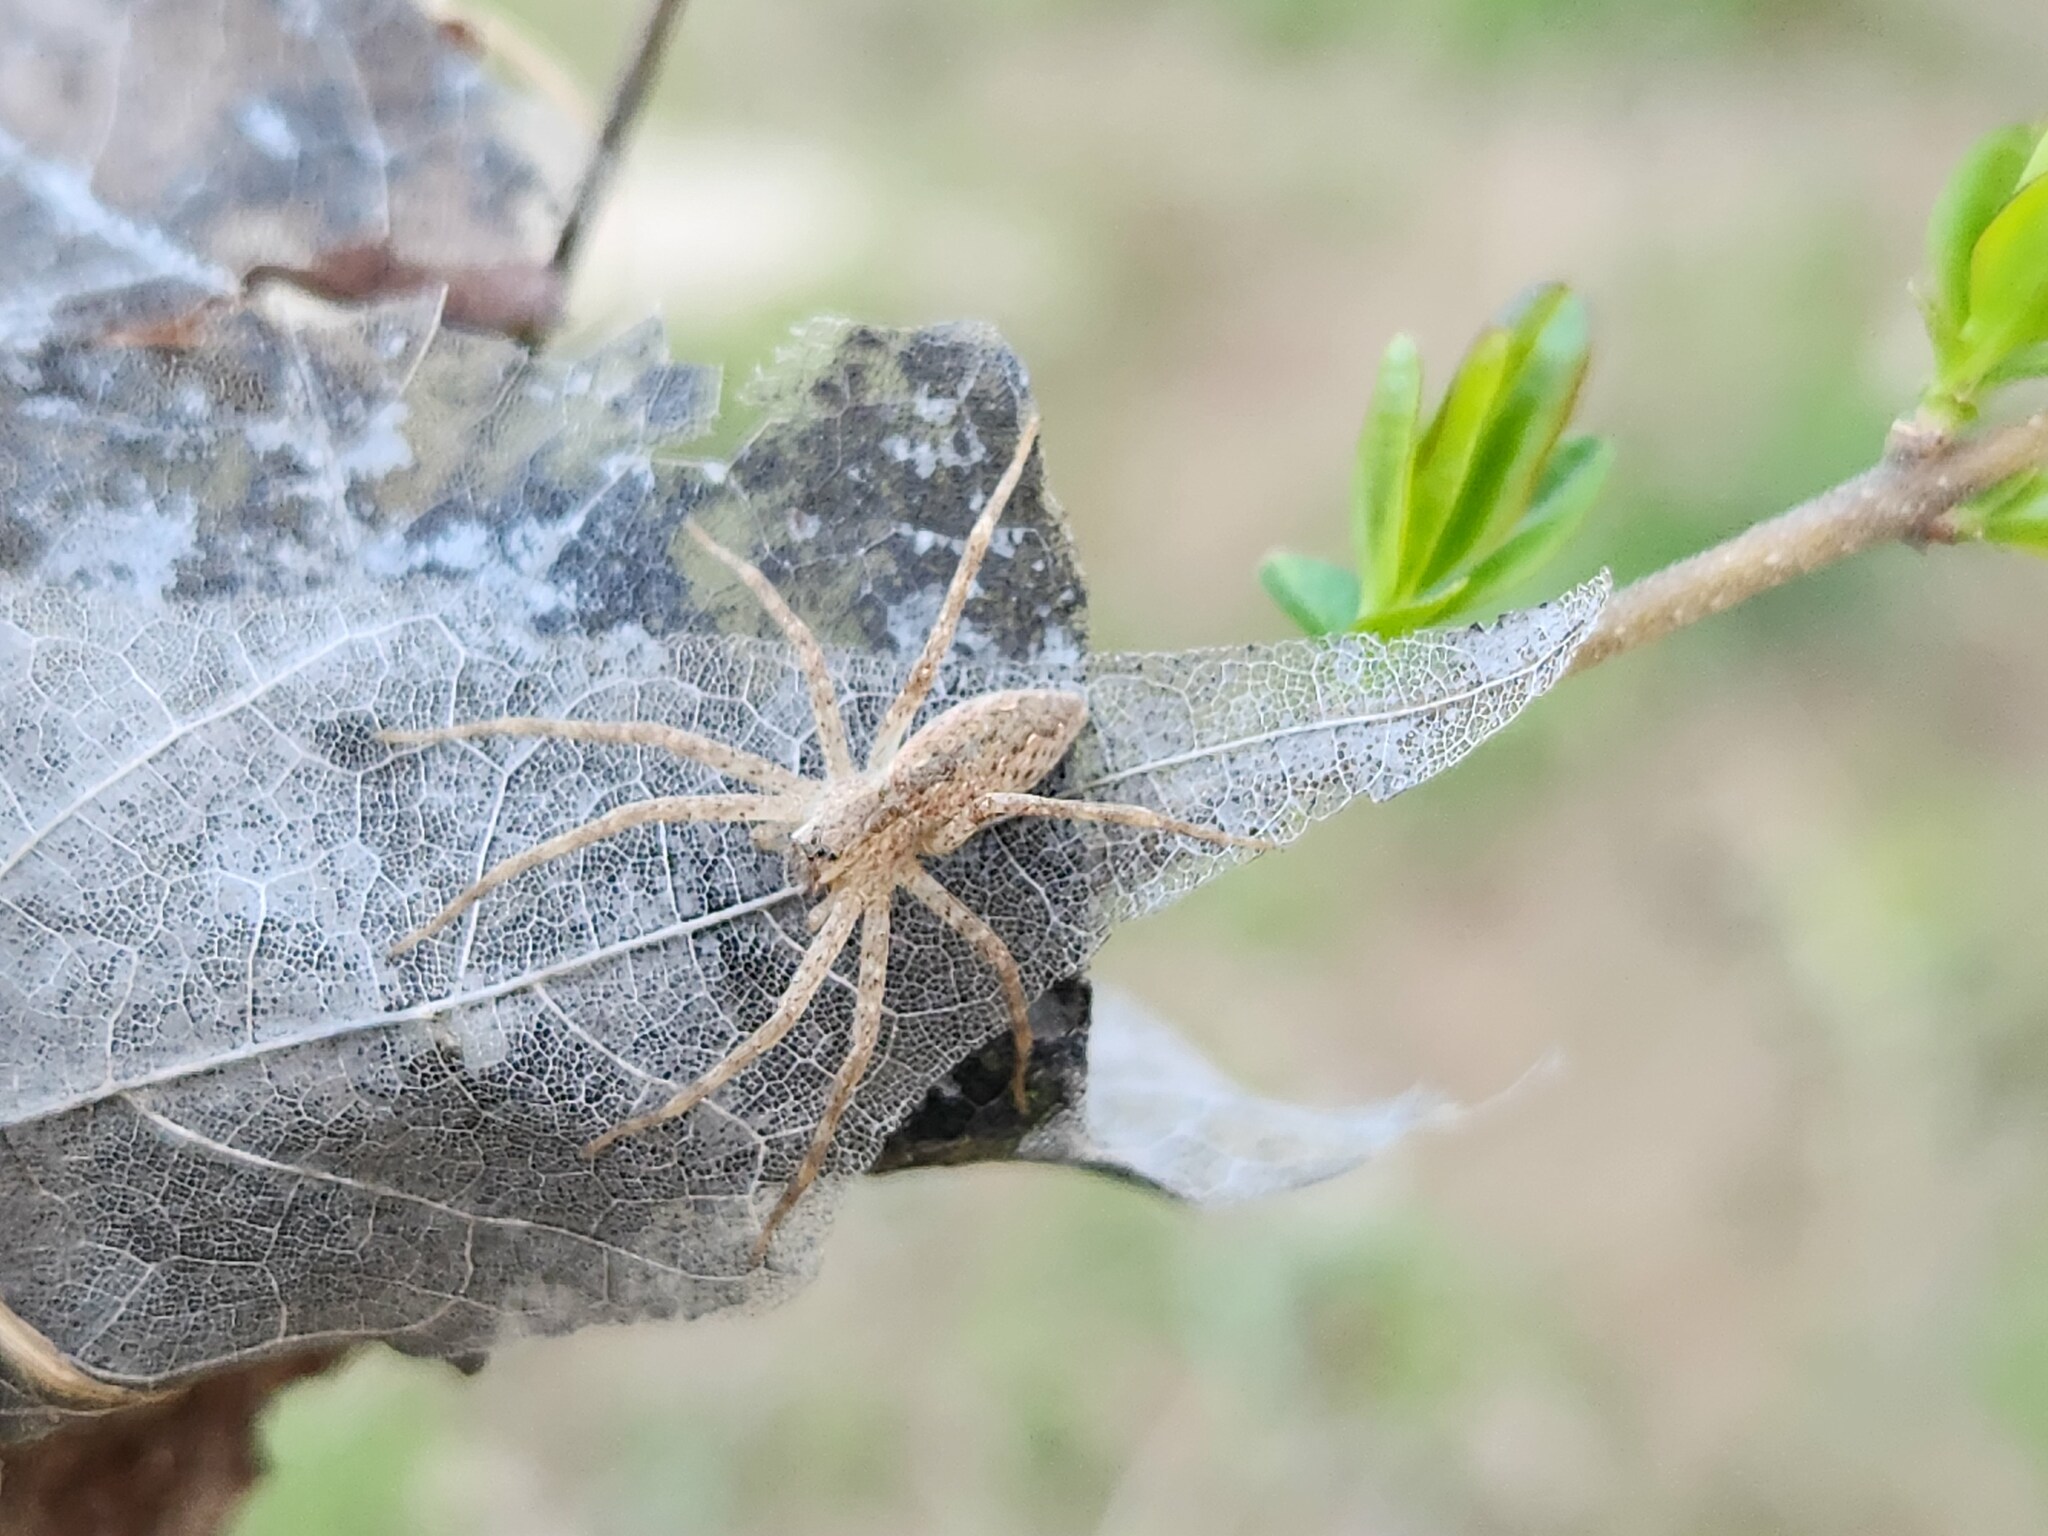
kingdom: Animalia
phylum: Arthropoda
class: Arachnida
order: Araneae
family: Pisauridae
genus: Pisaurina
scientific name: Pisaurina mira
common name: American nursery web spider
